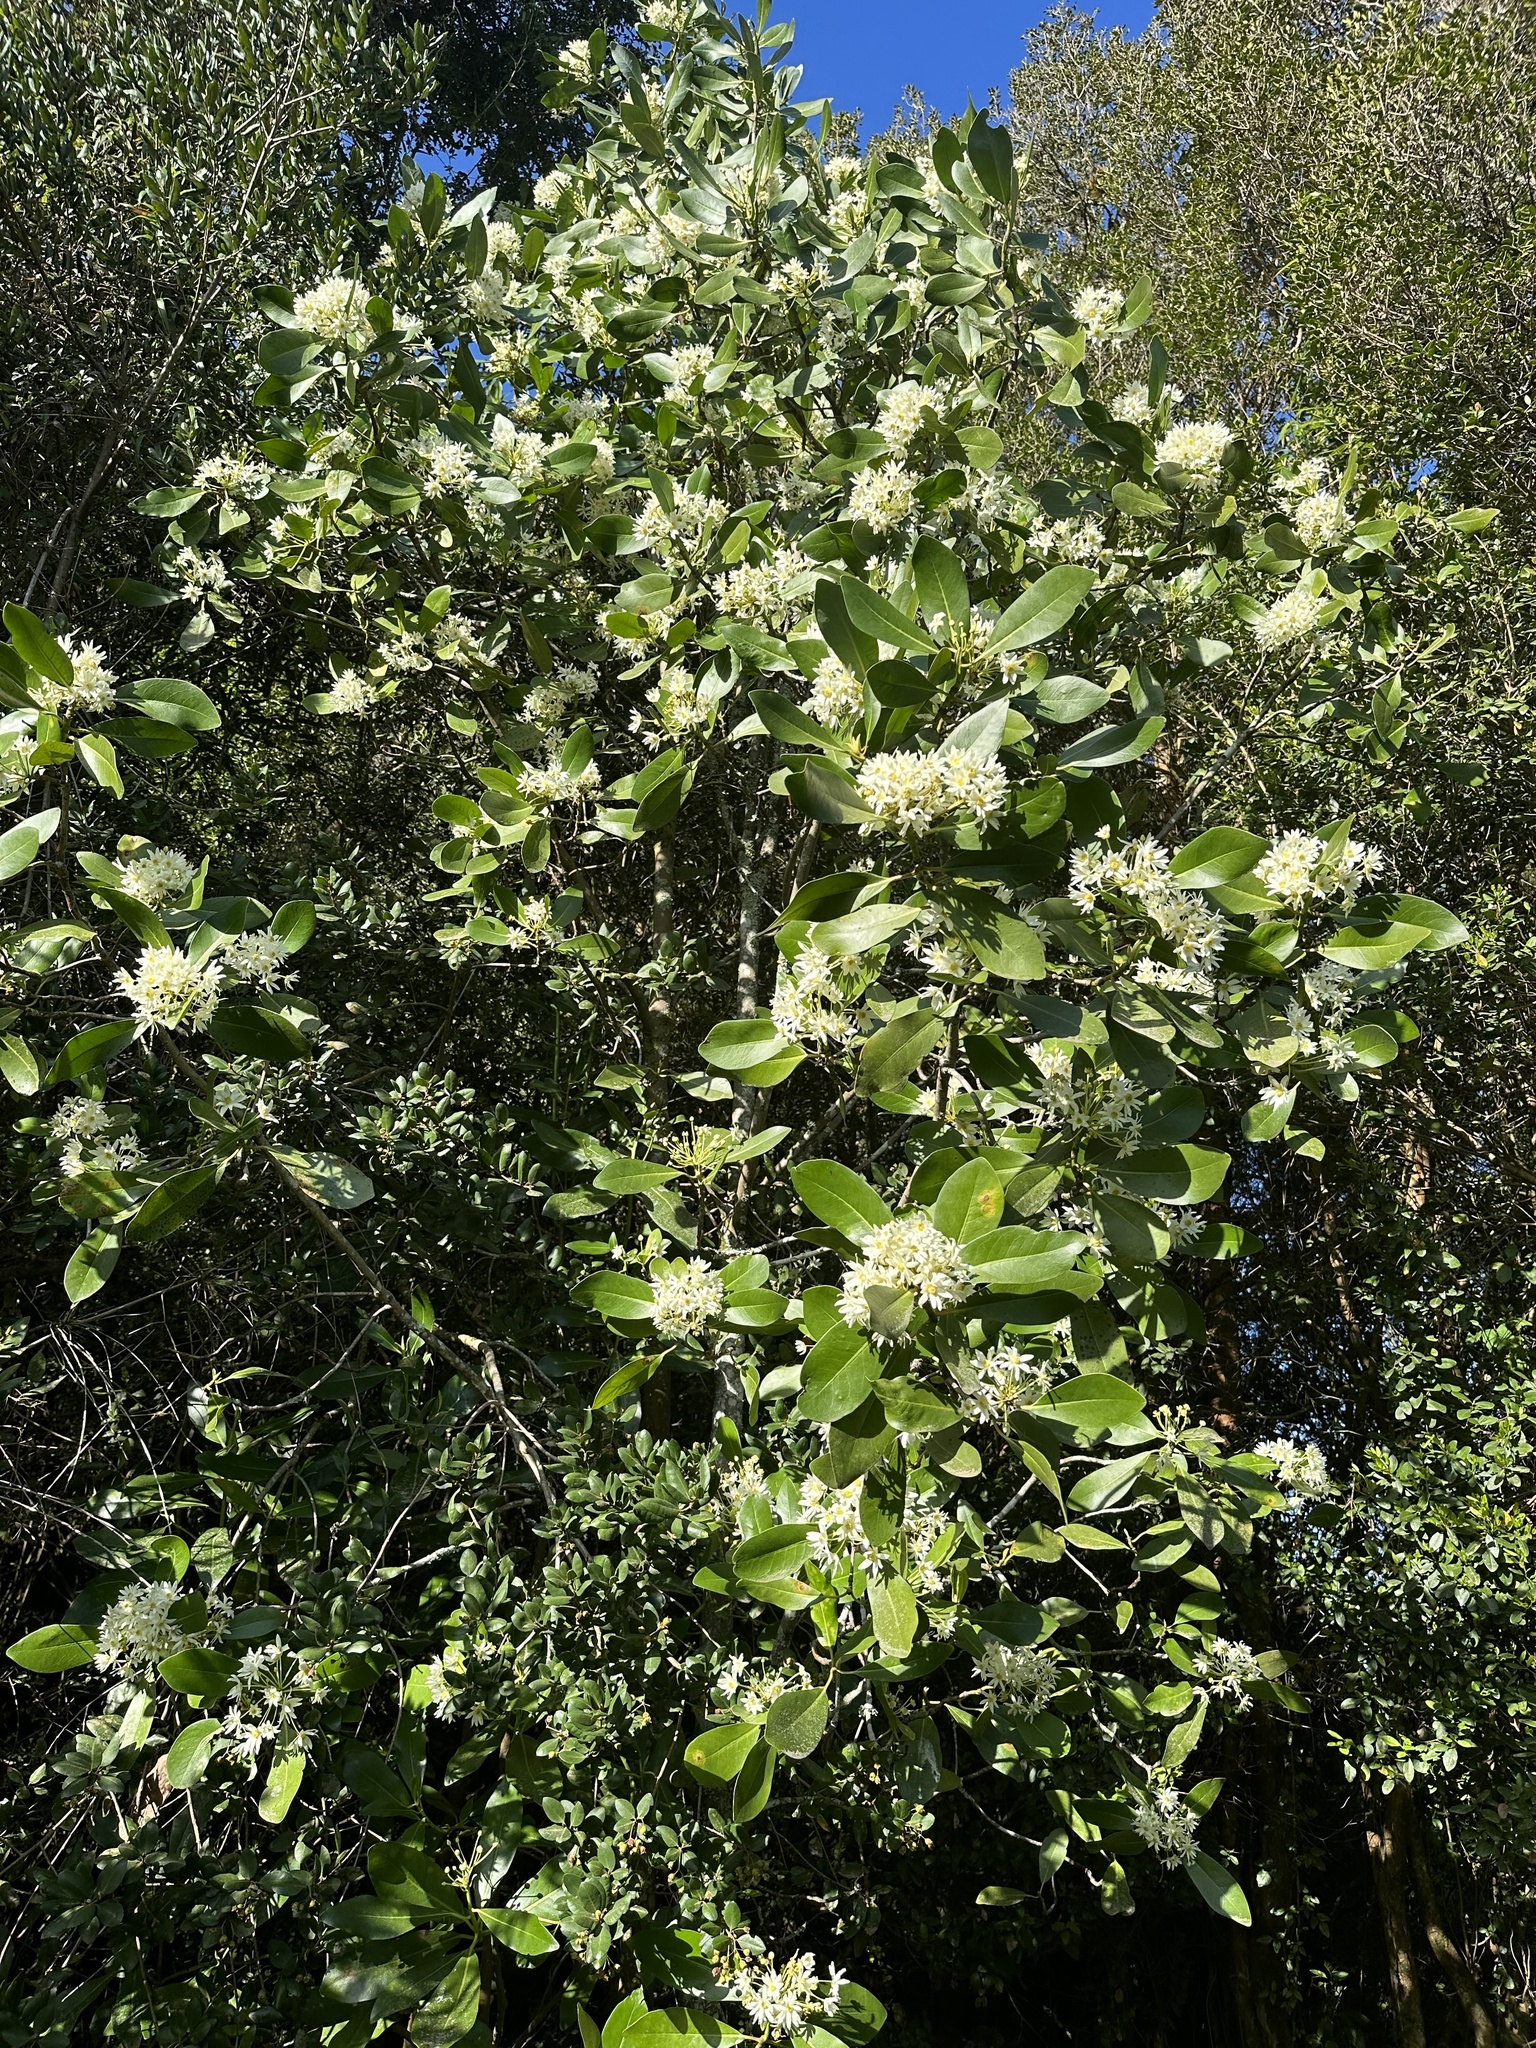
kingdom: Plantae
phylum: Tracheophyta
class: Magnoliopsida
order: Canellales
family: Winteraceae
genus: Drimys
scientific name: Drimys winteri
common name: Winter's-bark
